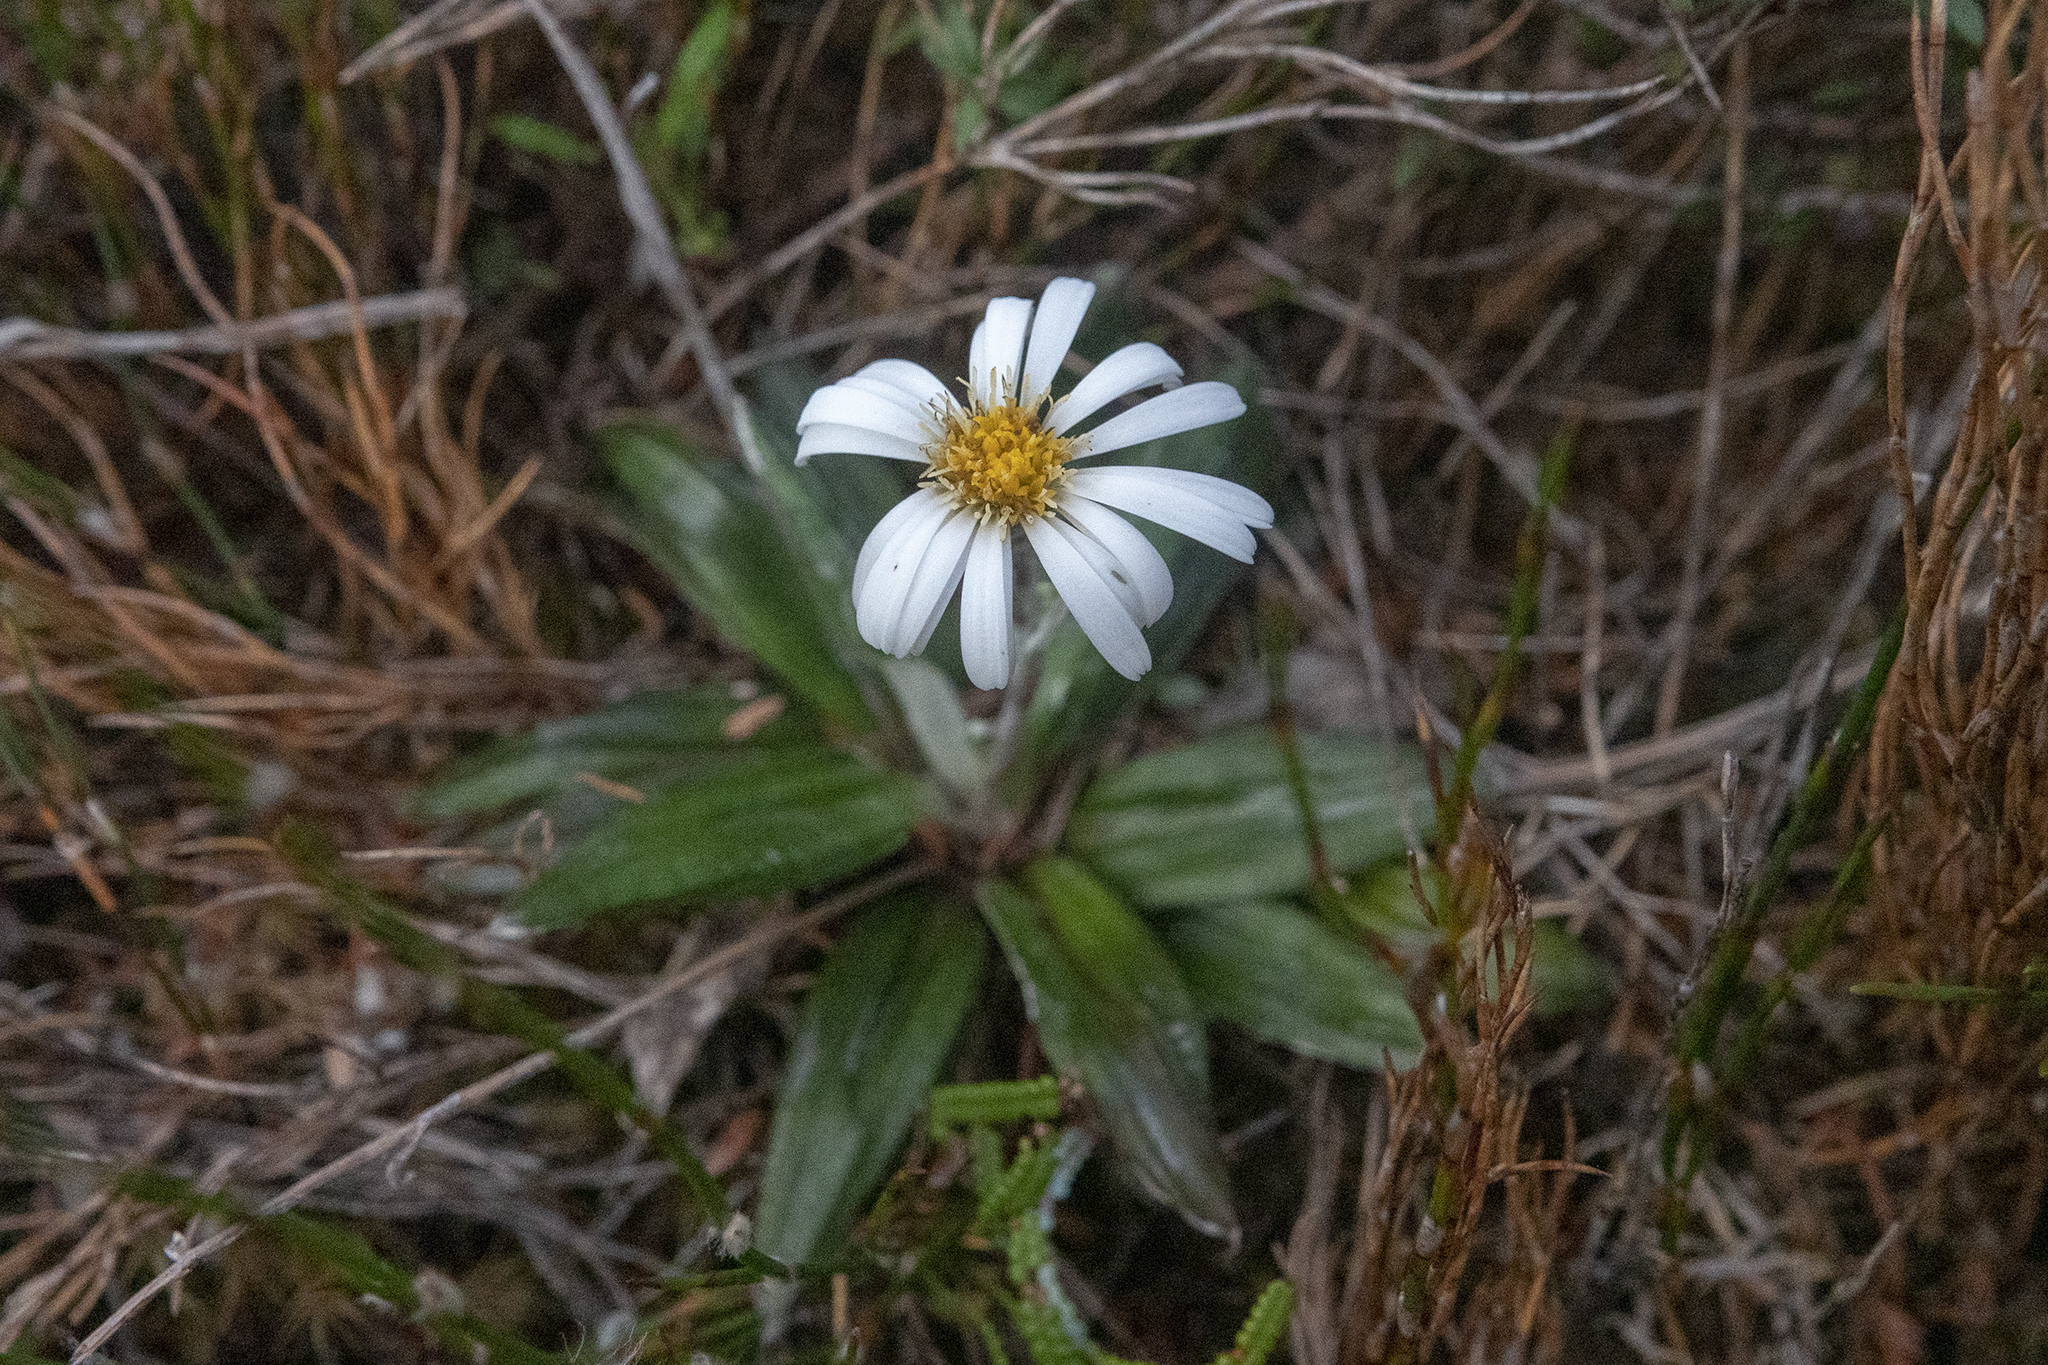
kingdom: Plantae
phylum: Tracheophyta
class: Magnoliopsida
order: Asterales
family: Asteraceae
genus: Celmisia
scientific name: Celmisia dubia
